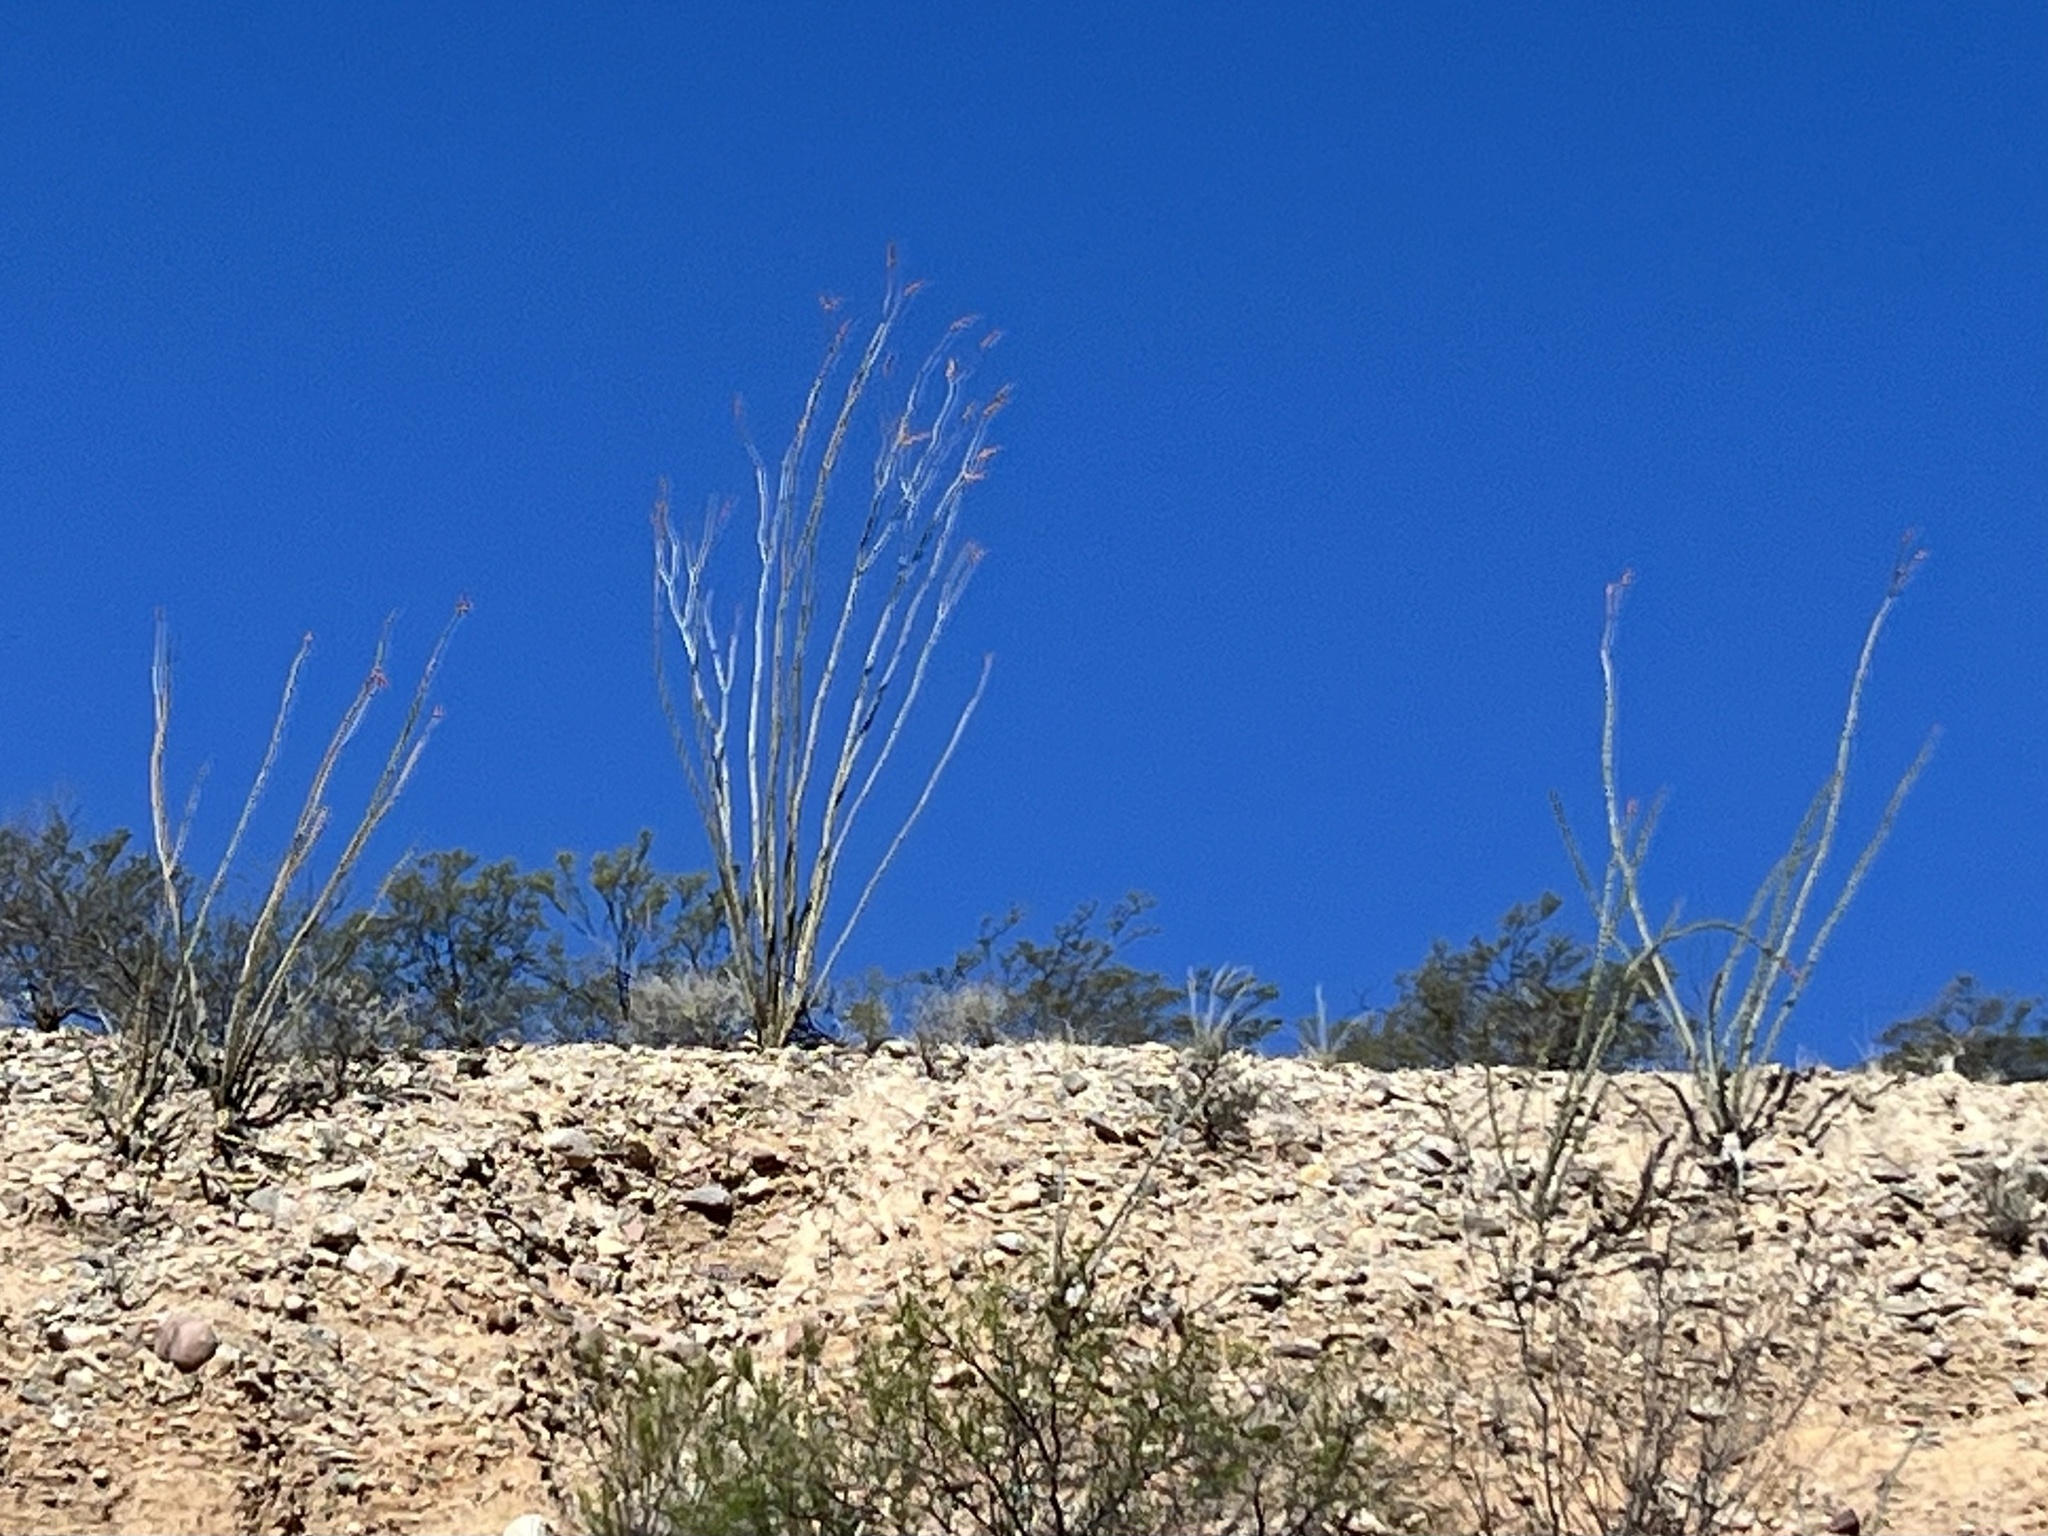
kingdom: Plantae
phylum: Tracheophyta
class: Magnoliopsida
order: Ericales
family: Fouquieriaceae
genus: Fouquieria
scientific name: Fouquieria splendens
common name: Vine-cactus
